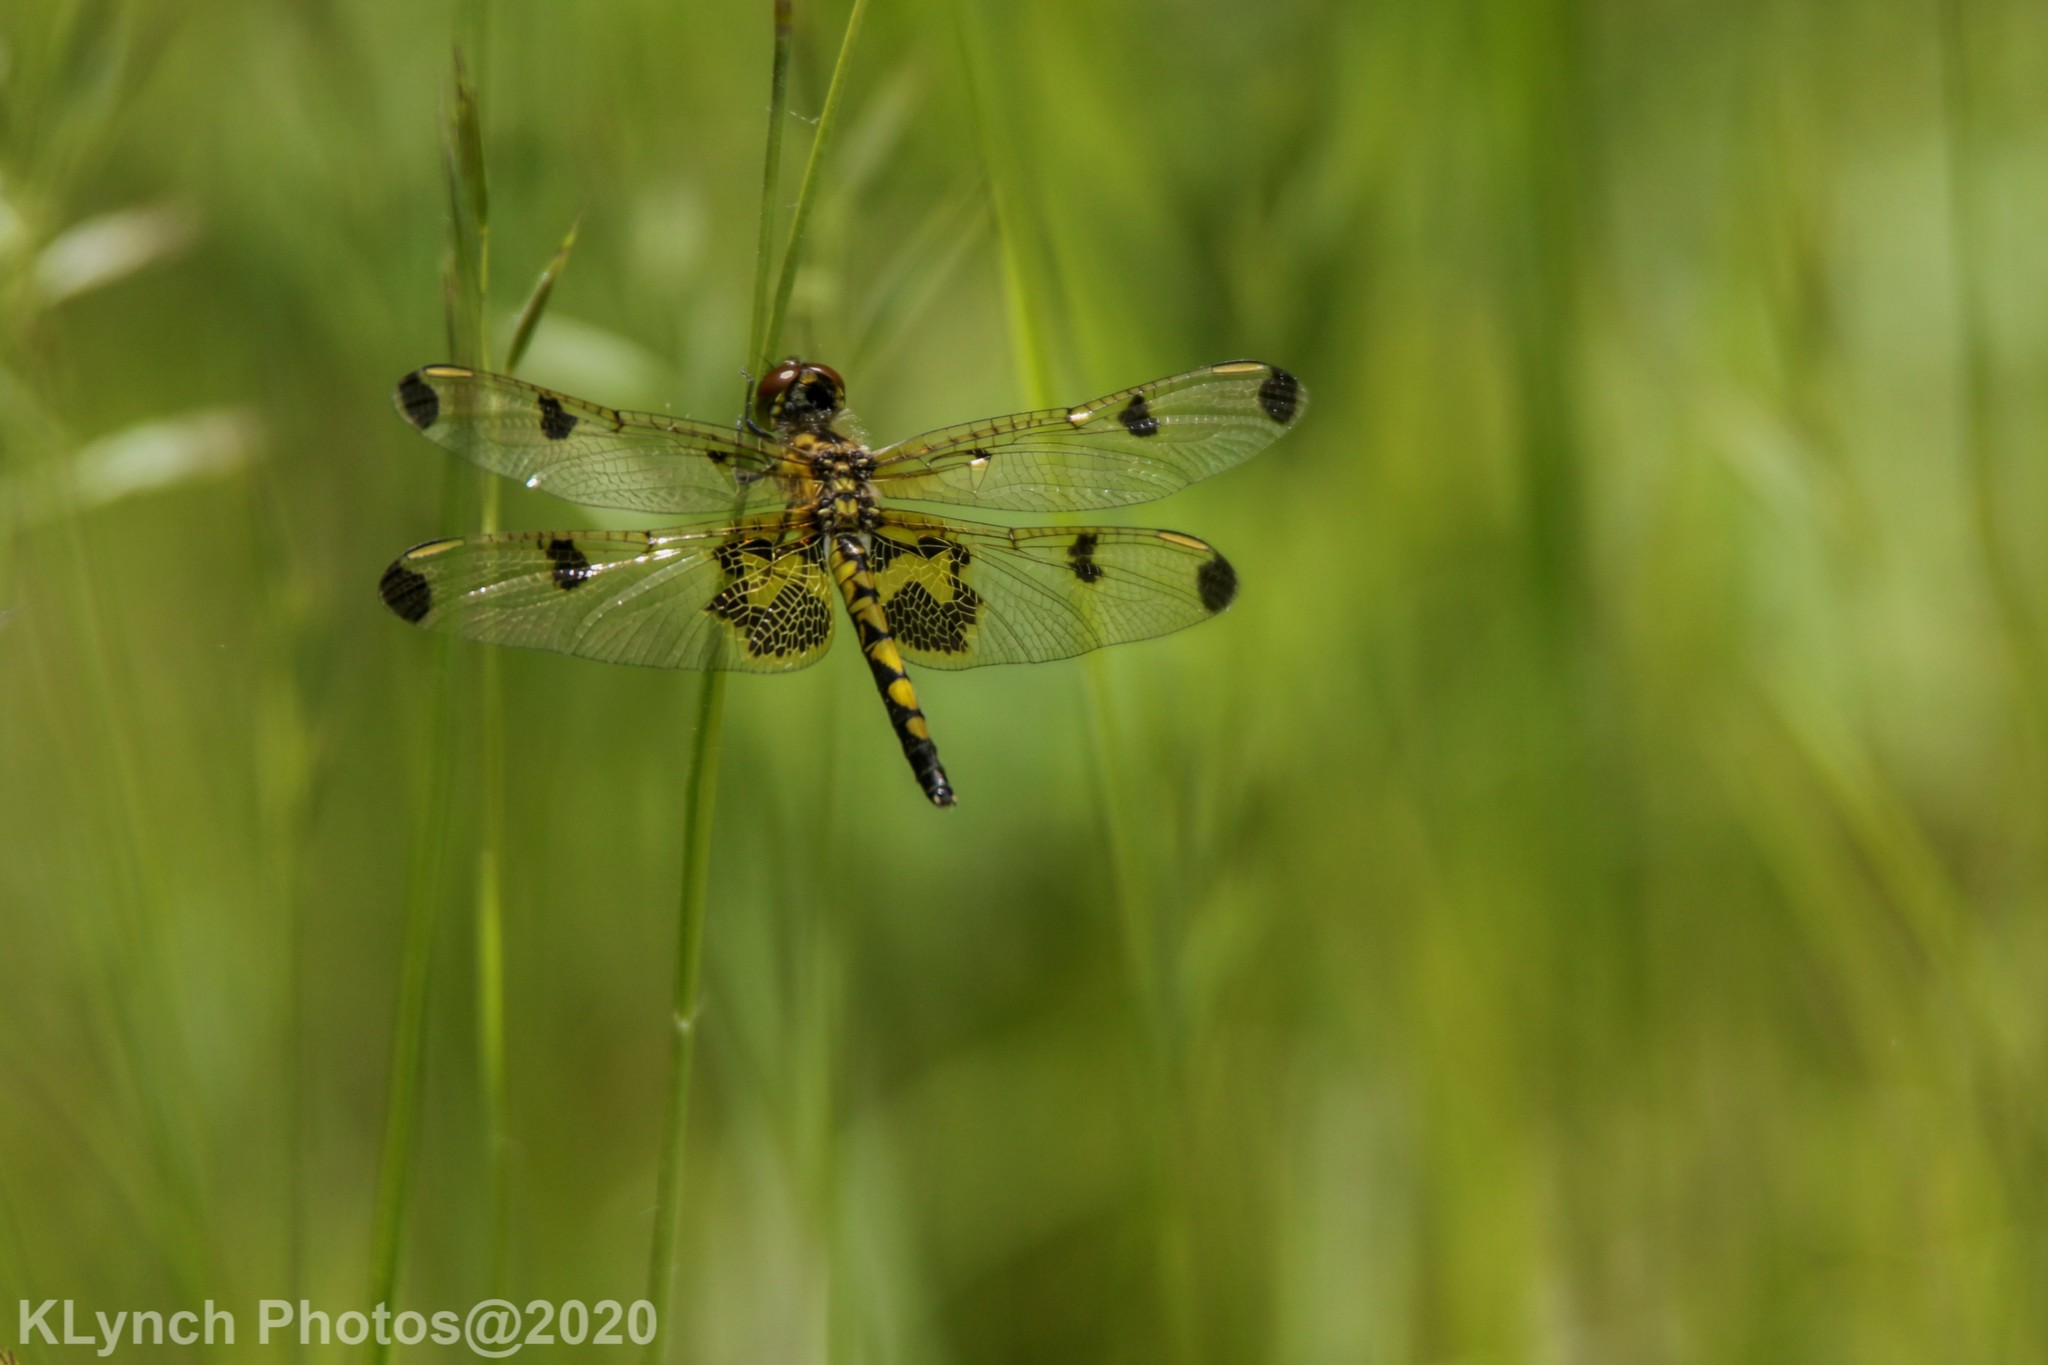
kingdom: Animalia
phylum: Arthropoda
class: Insecta
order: Odonata
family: Libellulidae
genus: Celithemis
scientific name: Celithemis elisa
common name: Calico pennant
